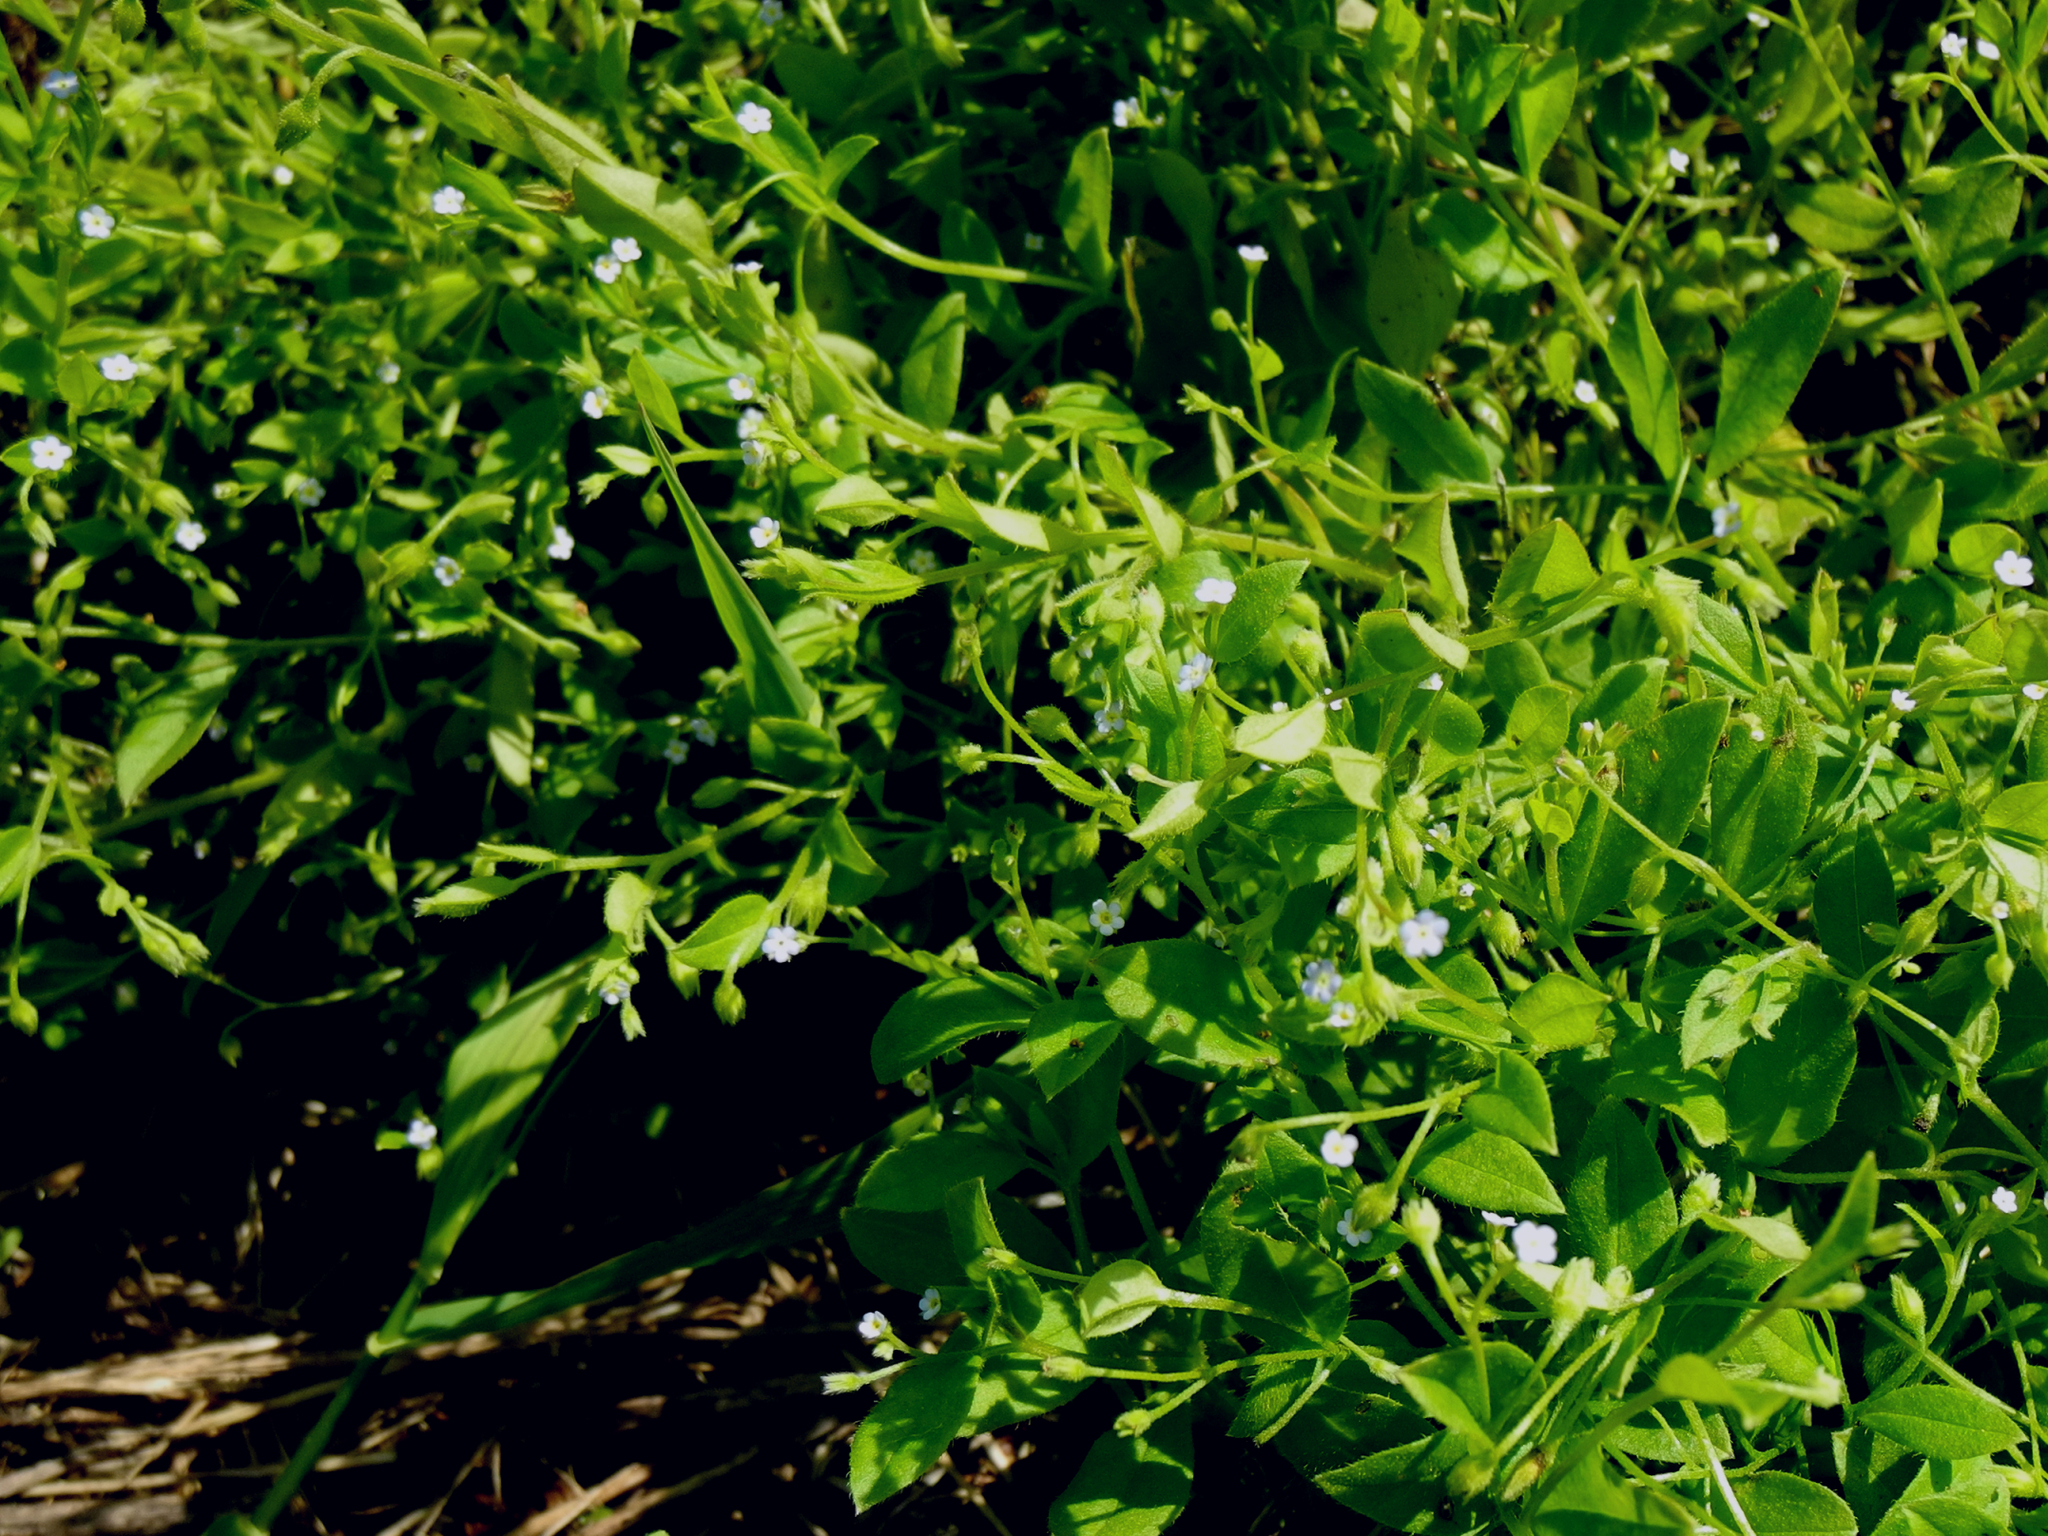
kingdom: Plantae
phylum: Tracheophyta
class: Magnoliopsida
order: Boraginales
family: Boraginaceae
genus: Myosotis
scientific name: Myosotis sparsiflora
